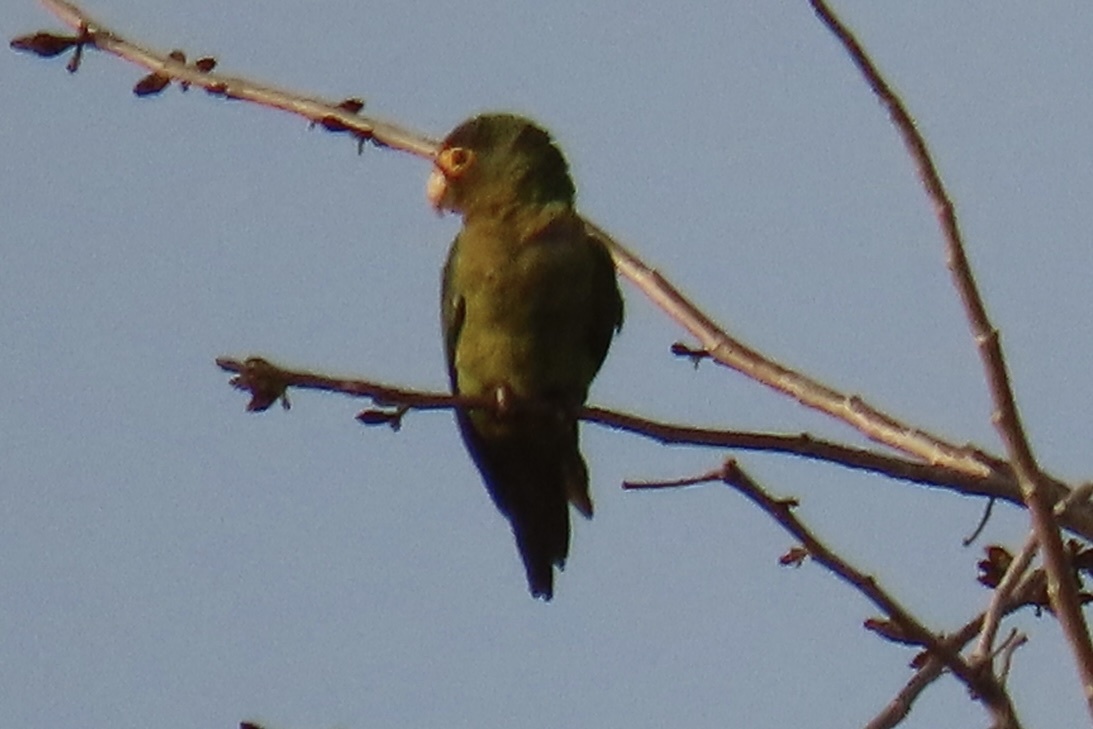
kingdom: Animalia
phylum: Chordata
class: Aves
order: Psittaciformes
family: Psittacidae
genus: Aratinga
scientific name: Aratinga canicularis
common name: Orange-fronted parakeet
